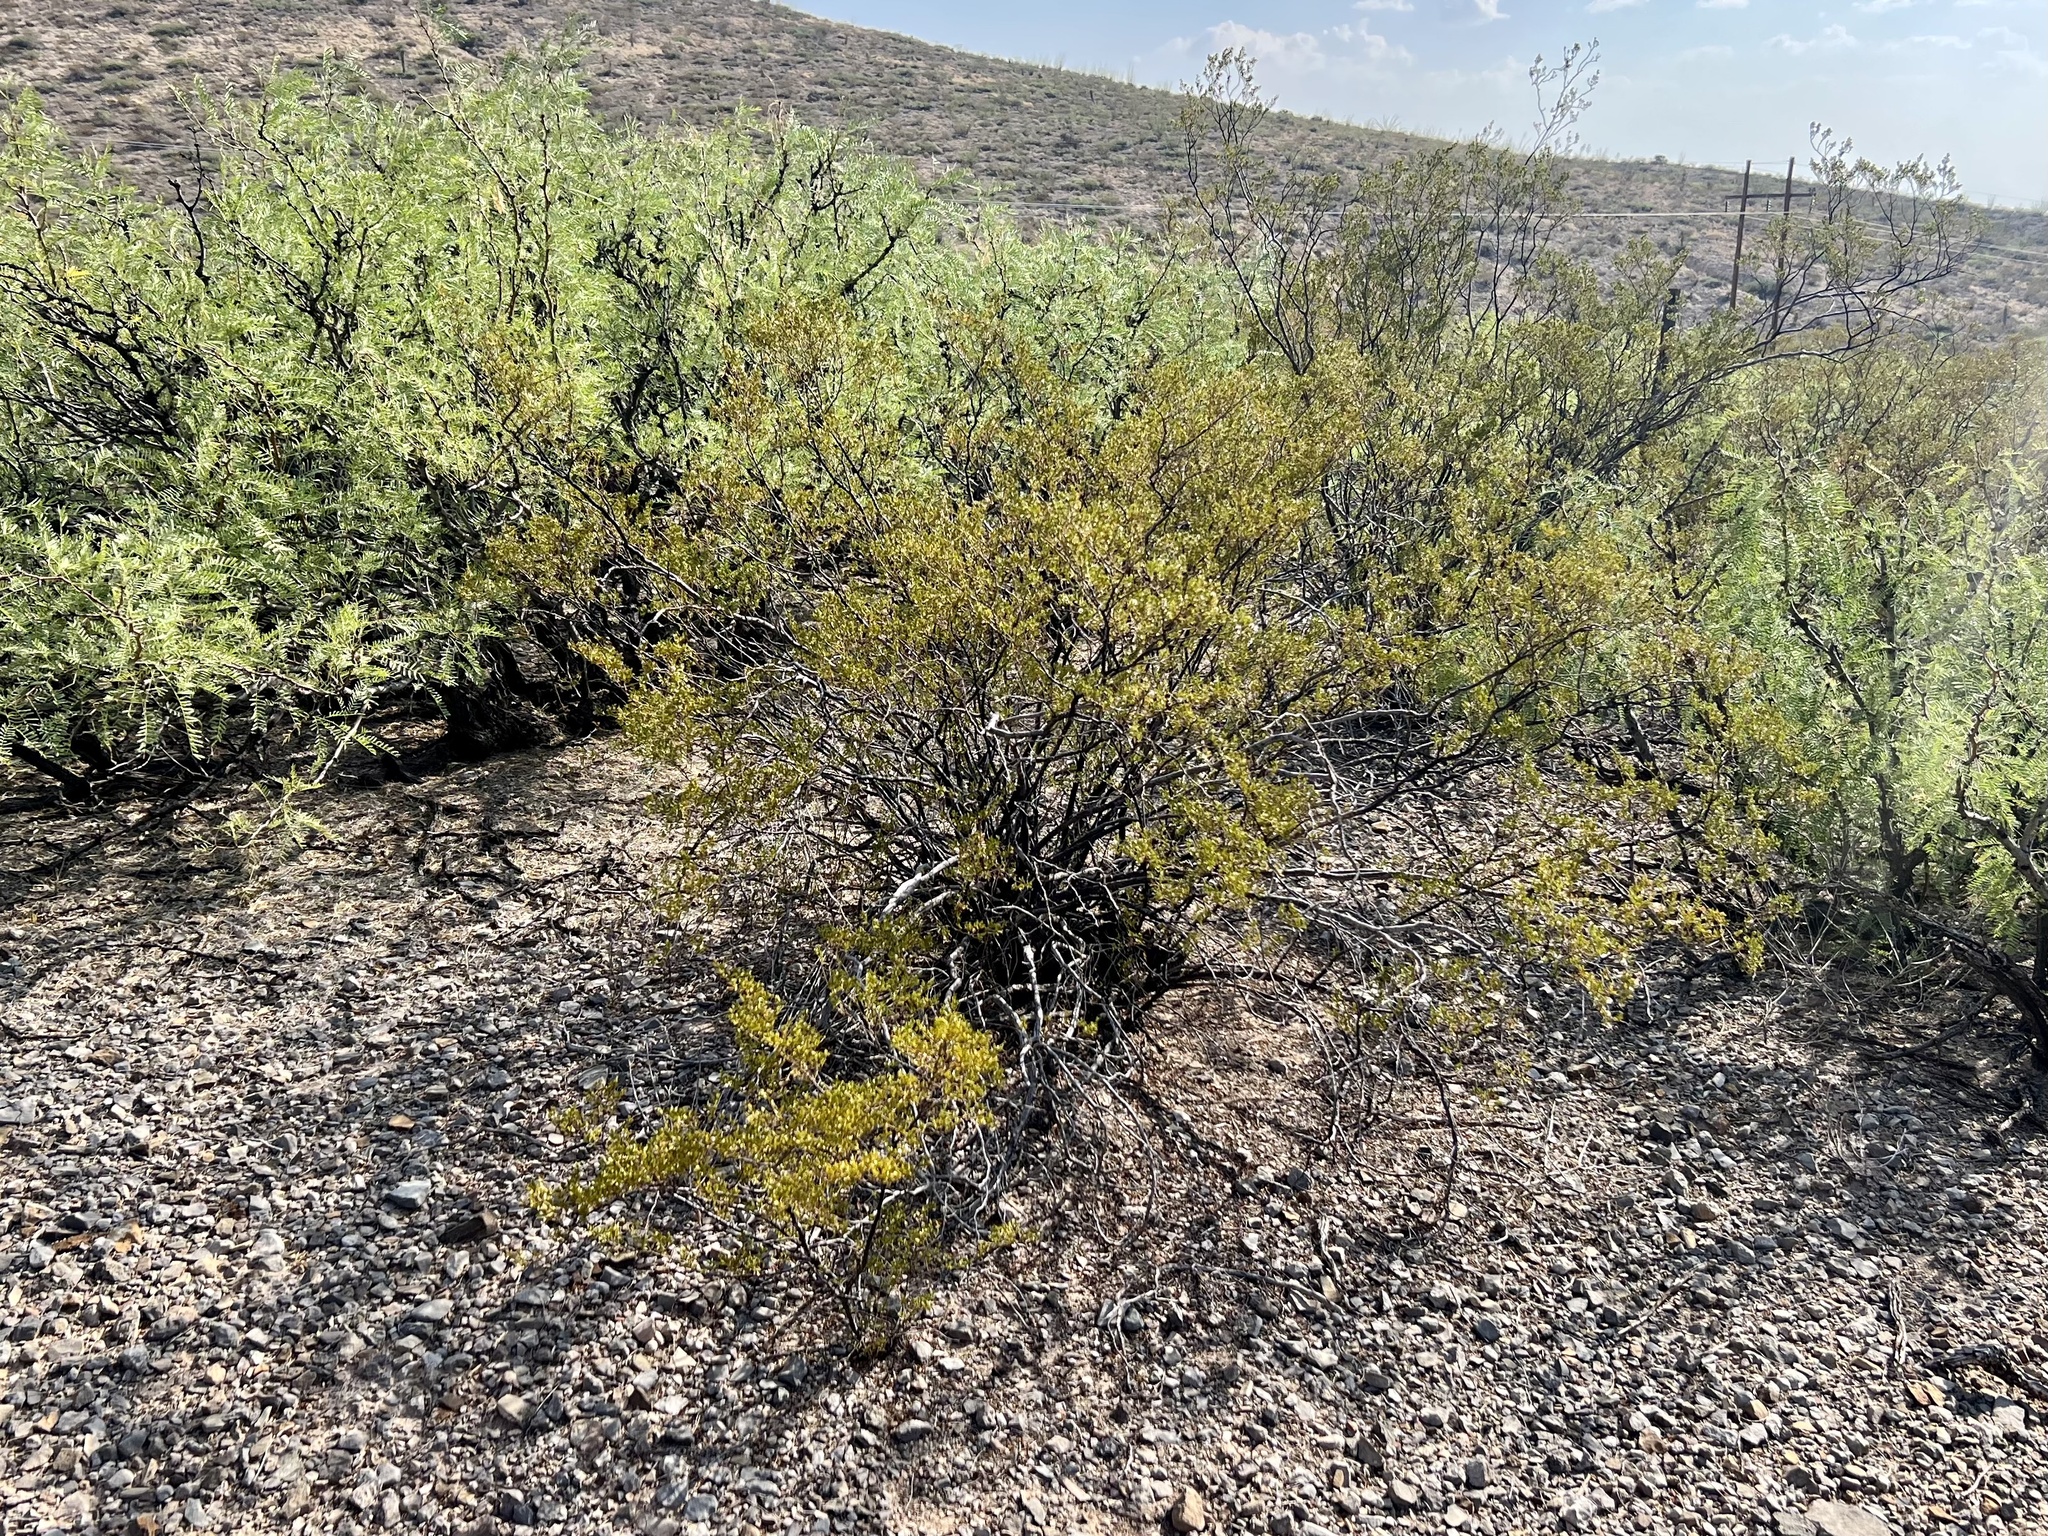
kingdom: Plantae
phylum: Tracheophyta
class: Magnoliopsida
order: Zygophyllales
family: Zygophyllaceae
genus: Larrea
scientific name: Larrea tridentata
